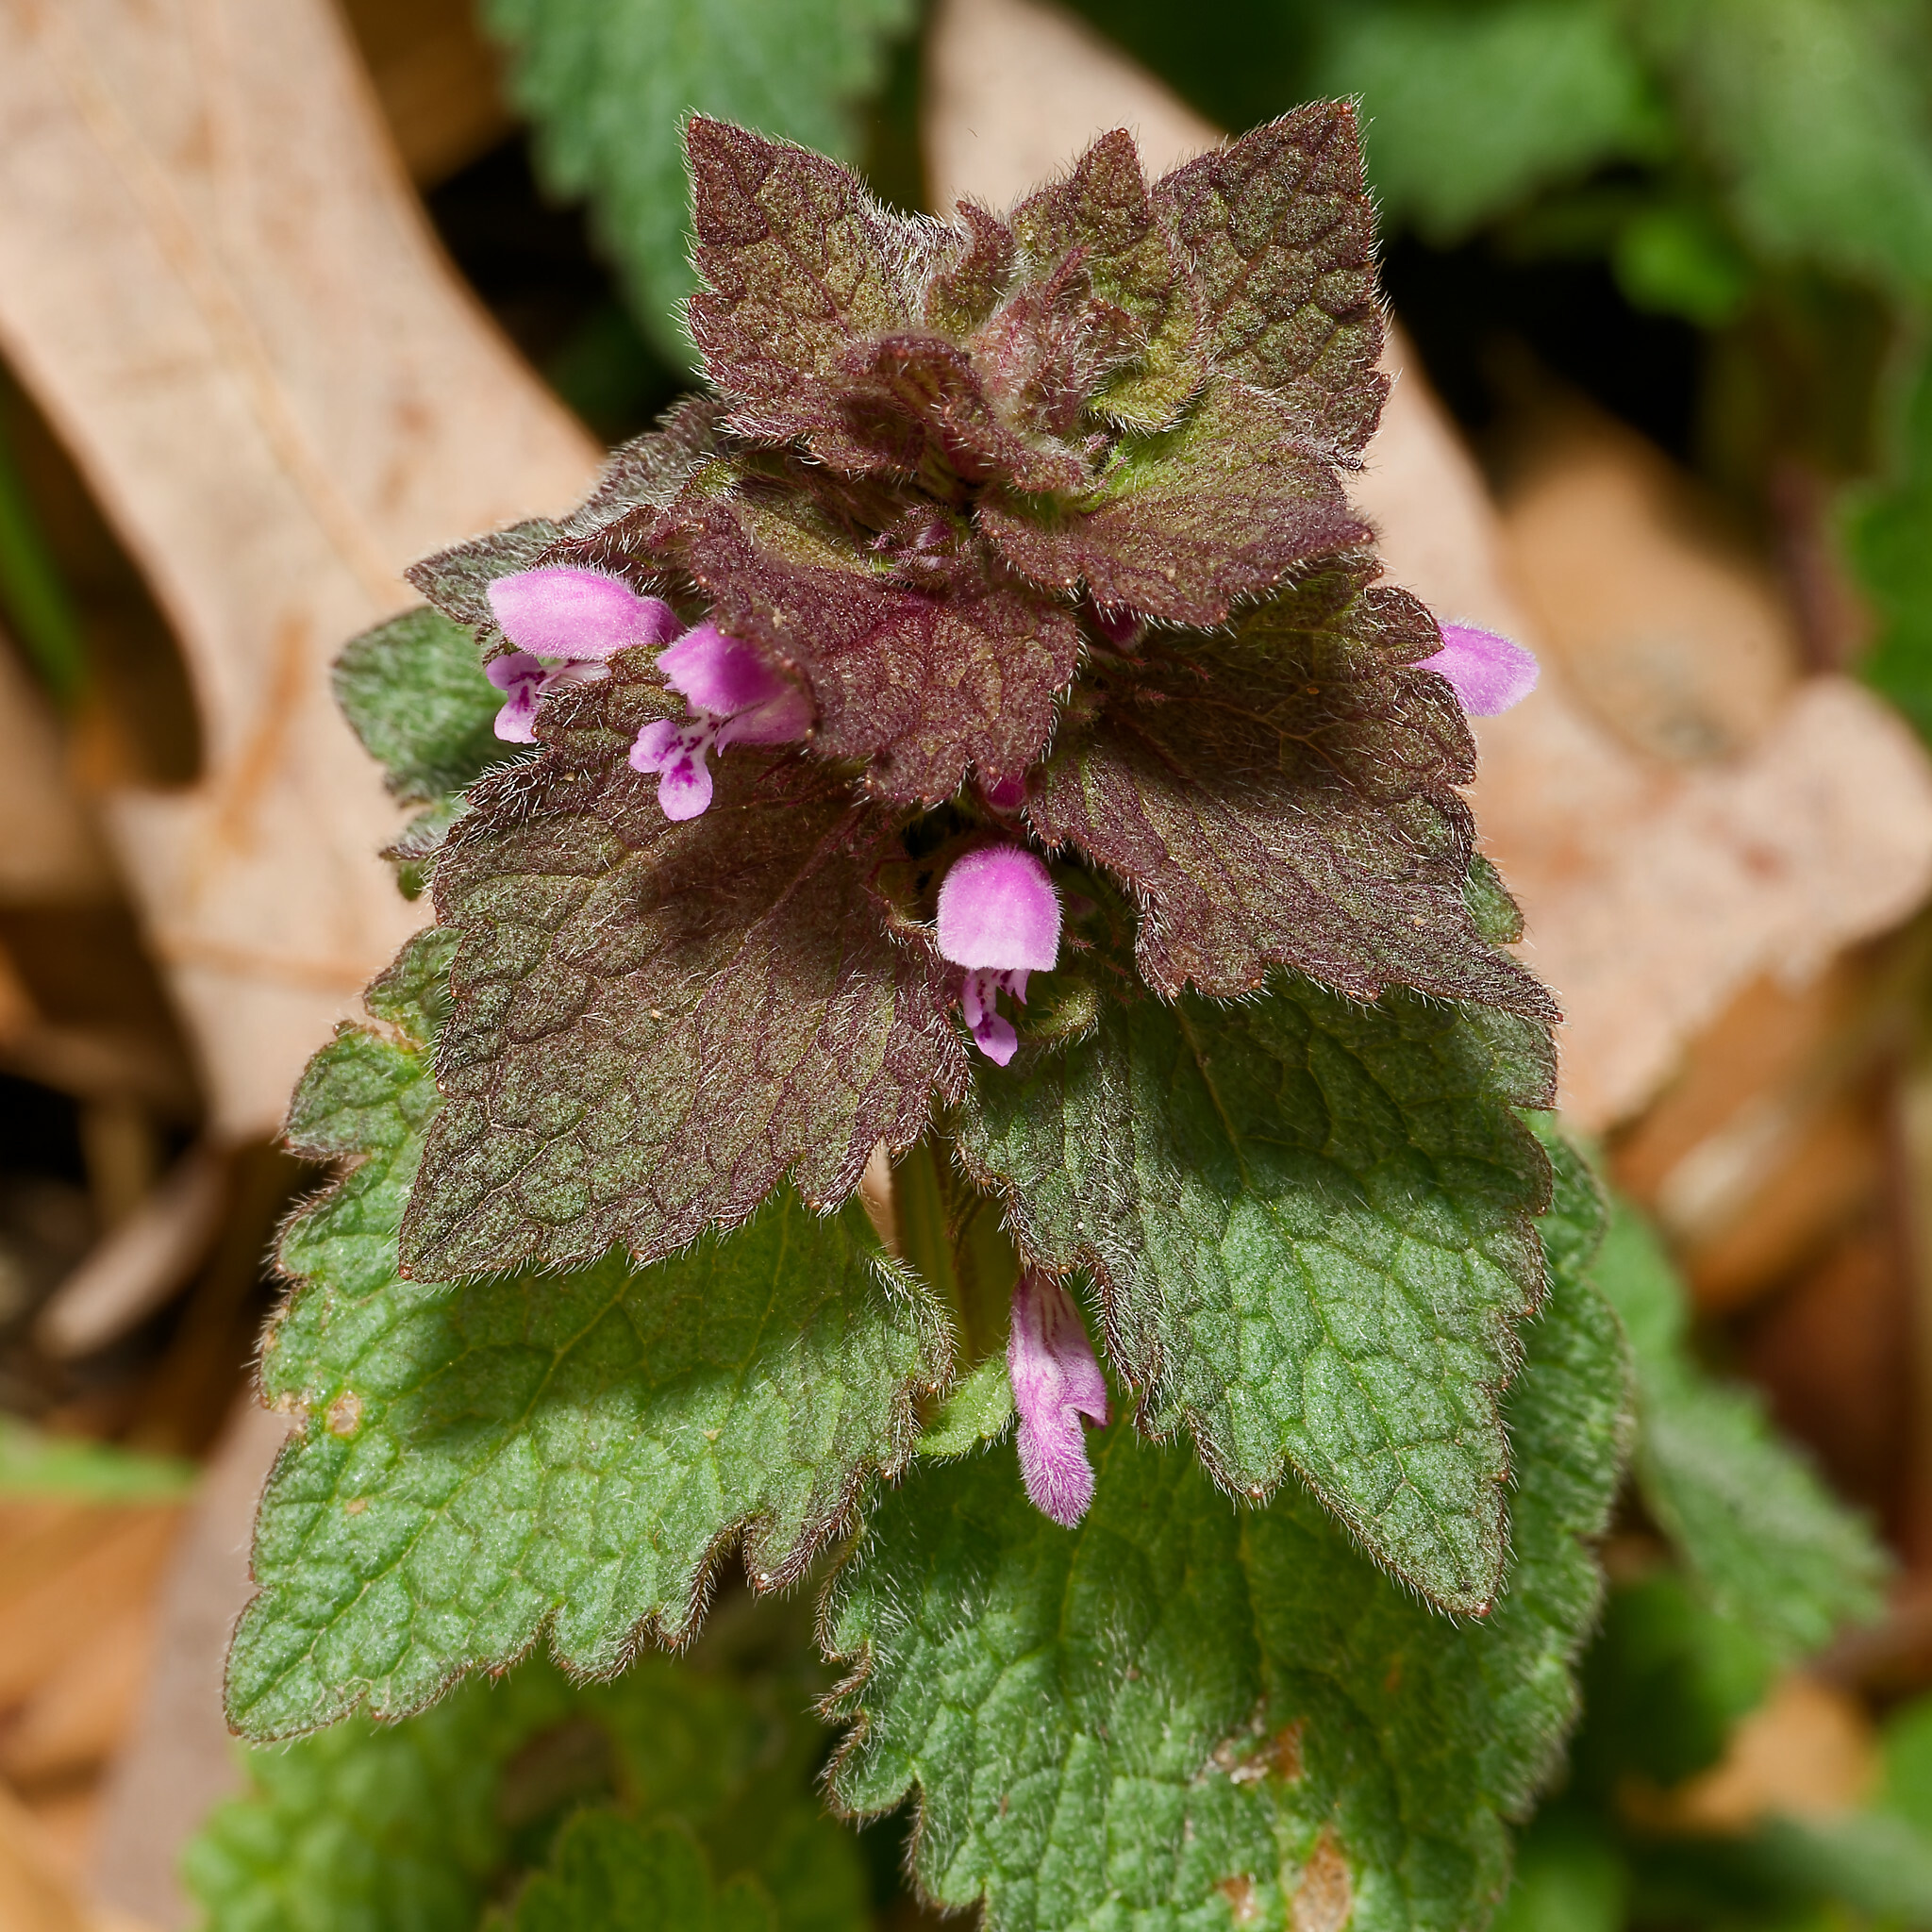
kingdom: Plantae
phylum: Tracheophyta
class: Magnoliopsida
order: Lamiales
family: Lamiaceae
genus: Lamium
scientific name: Lamium purpureum
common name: Red dead-nettle
